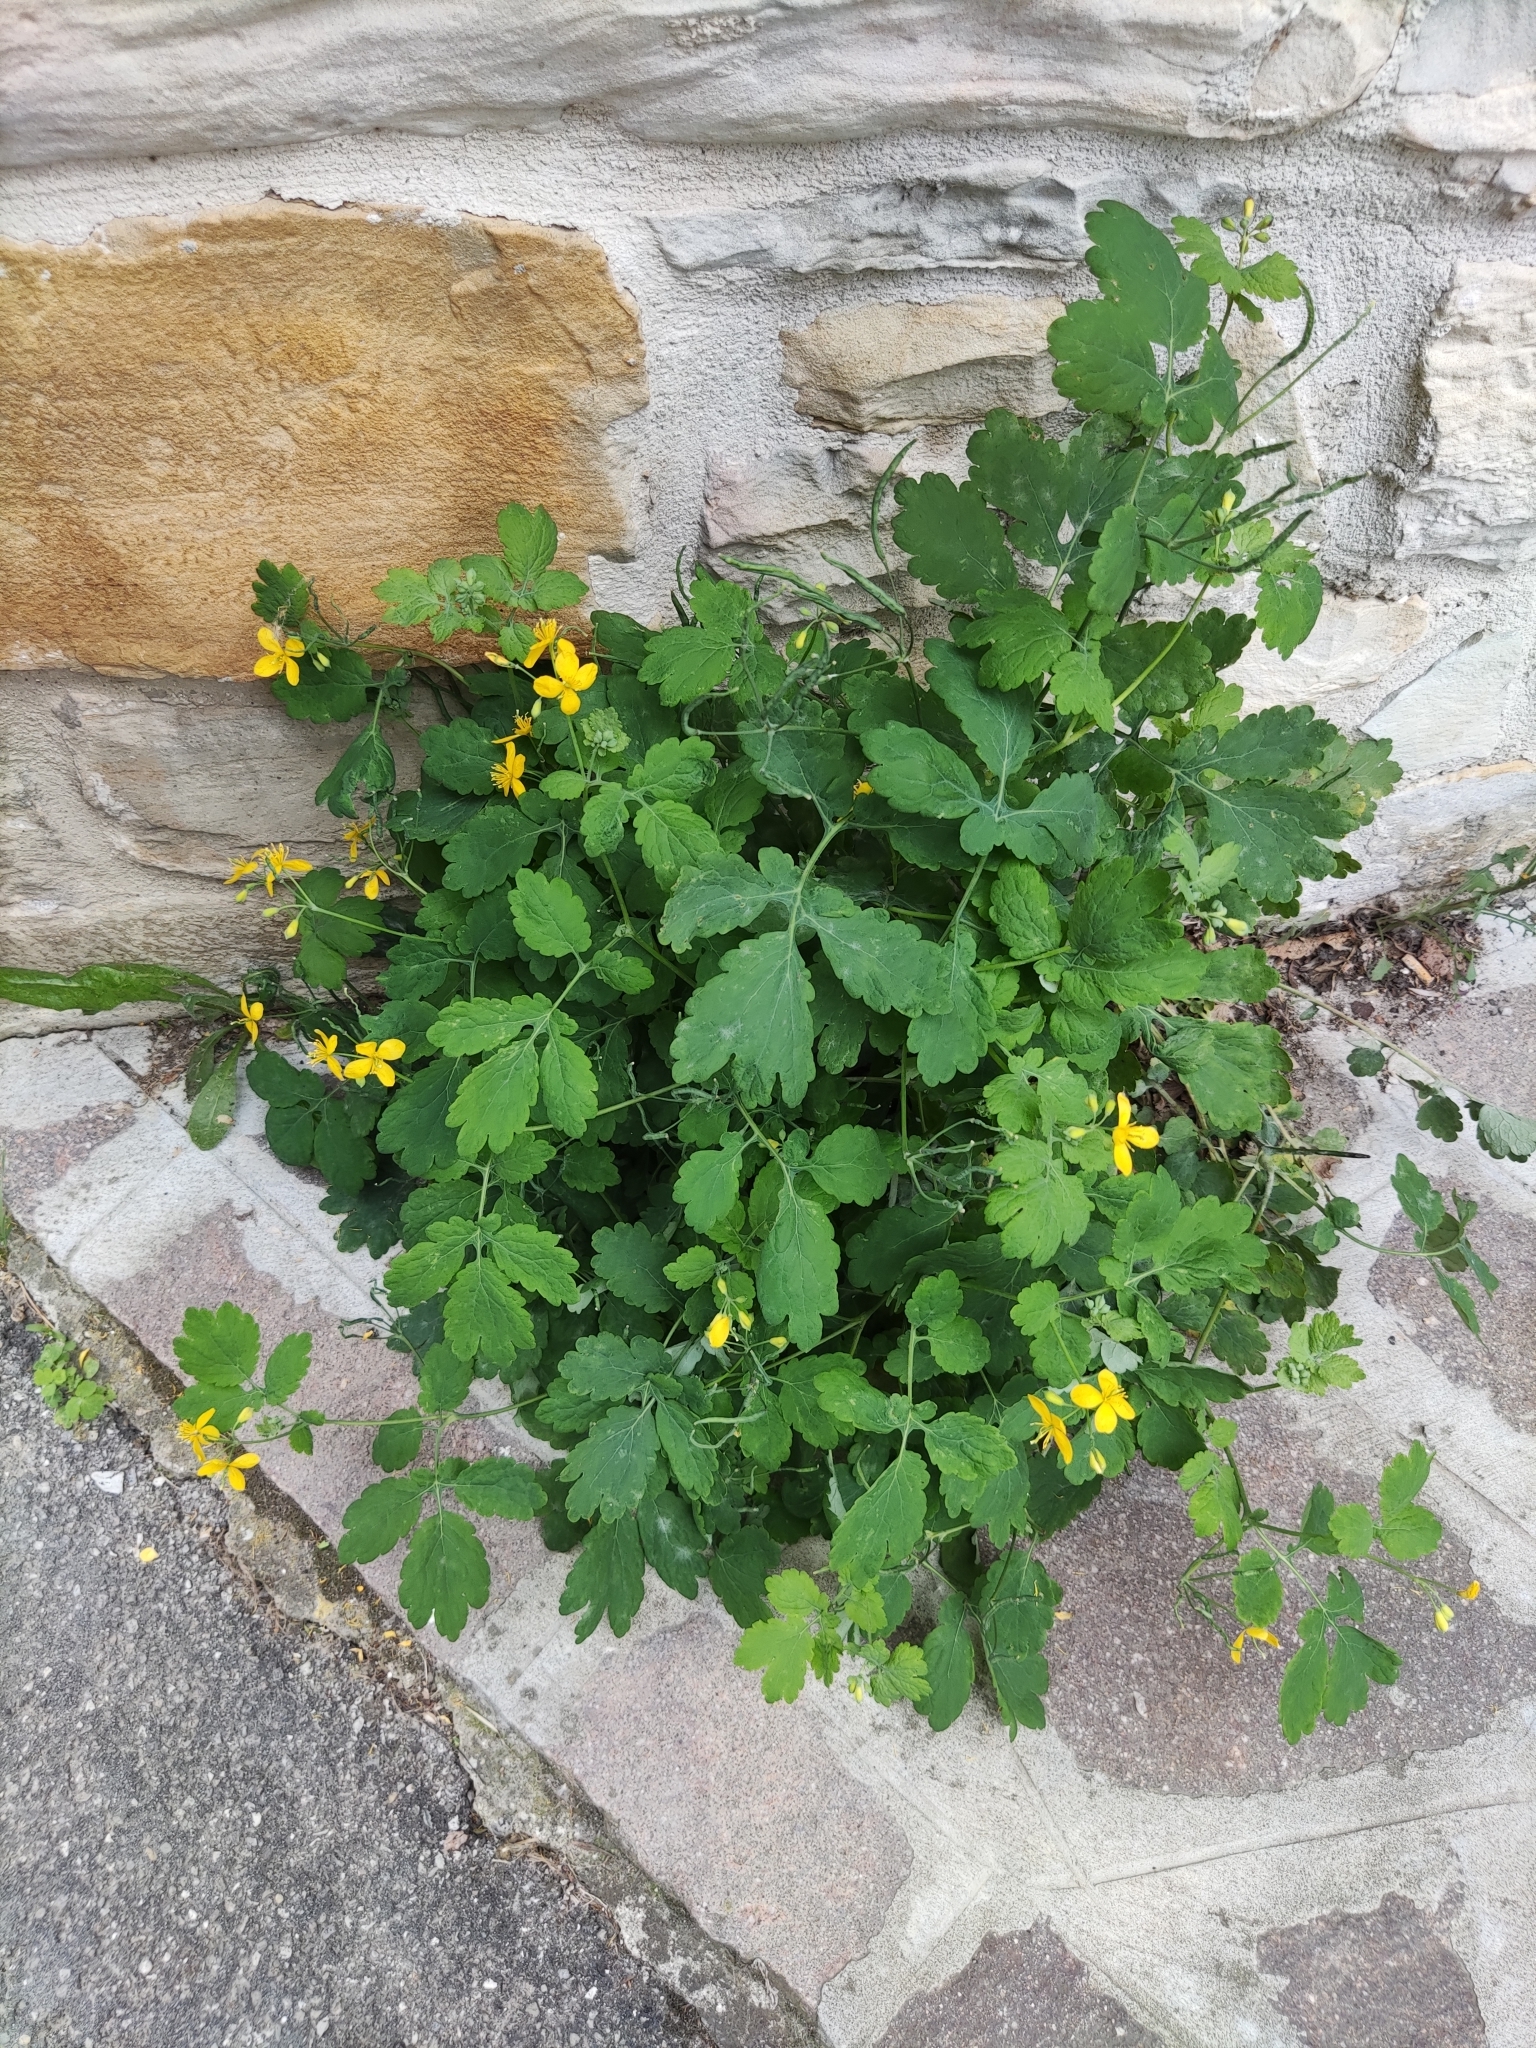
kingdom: Plantae
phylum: Tracheophyta
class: Magnoliopsida
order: Ranunculales
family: Papaveraceae
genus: Chelidonium
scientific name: Chelidonium majus
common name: Greater celandine
